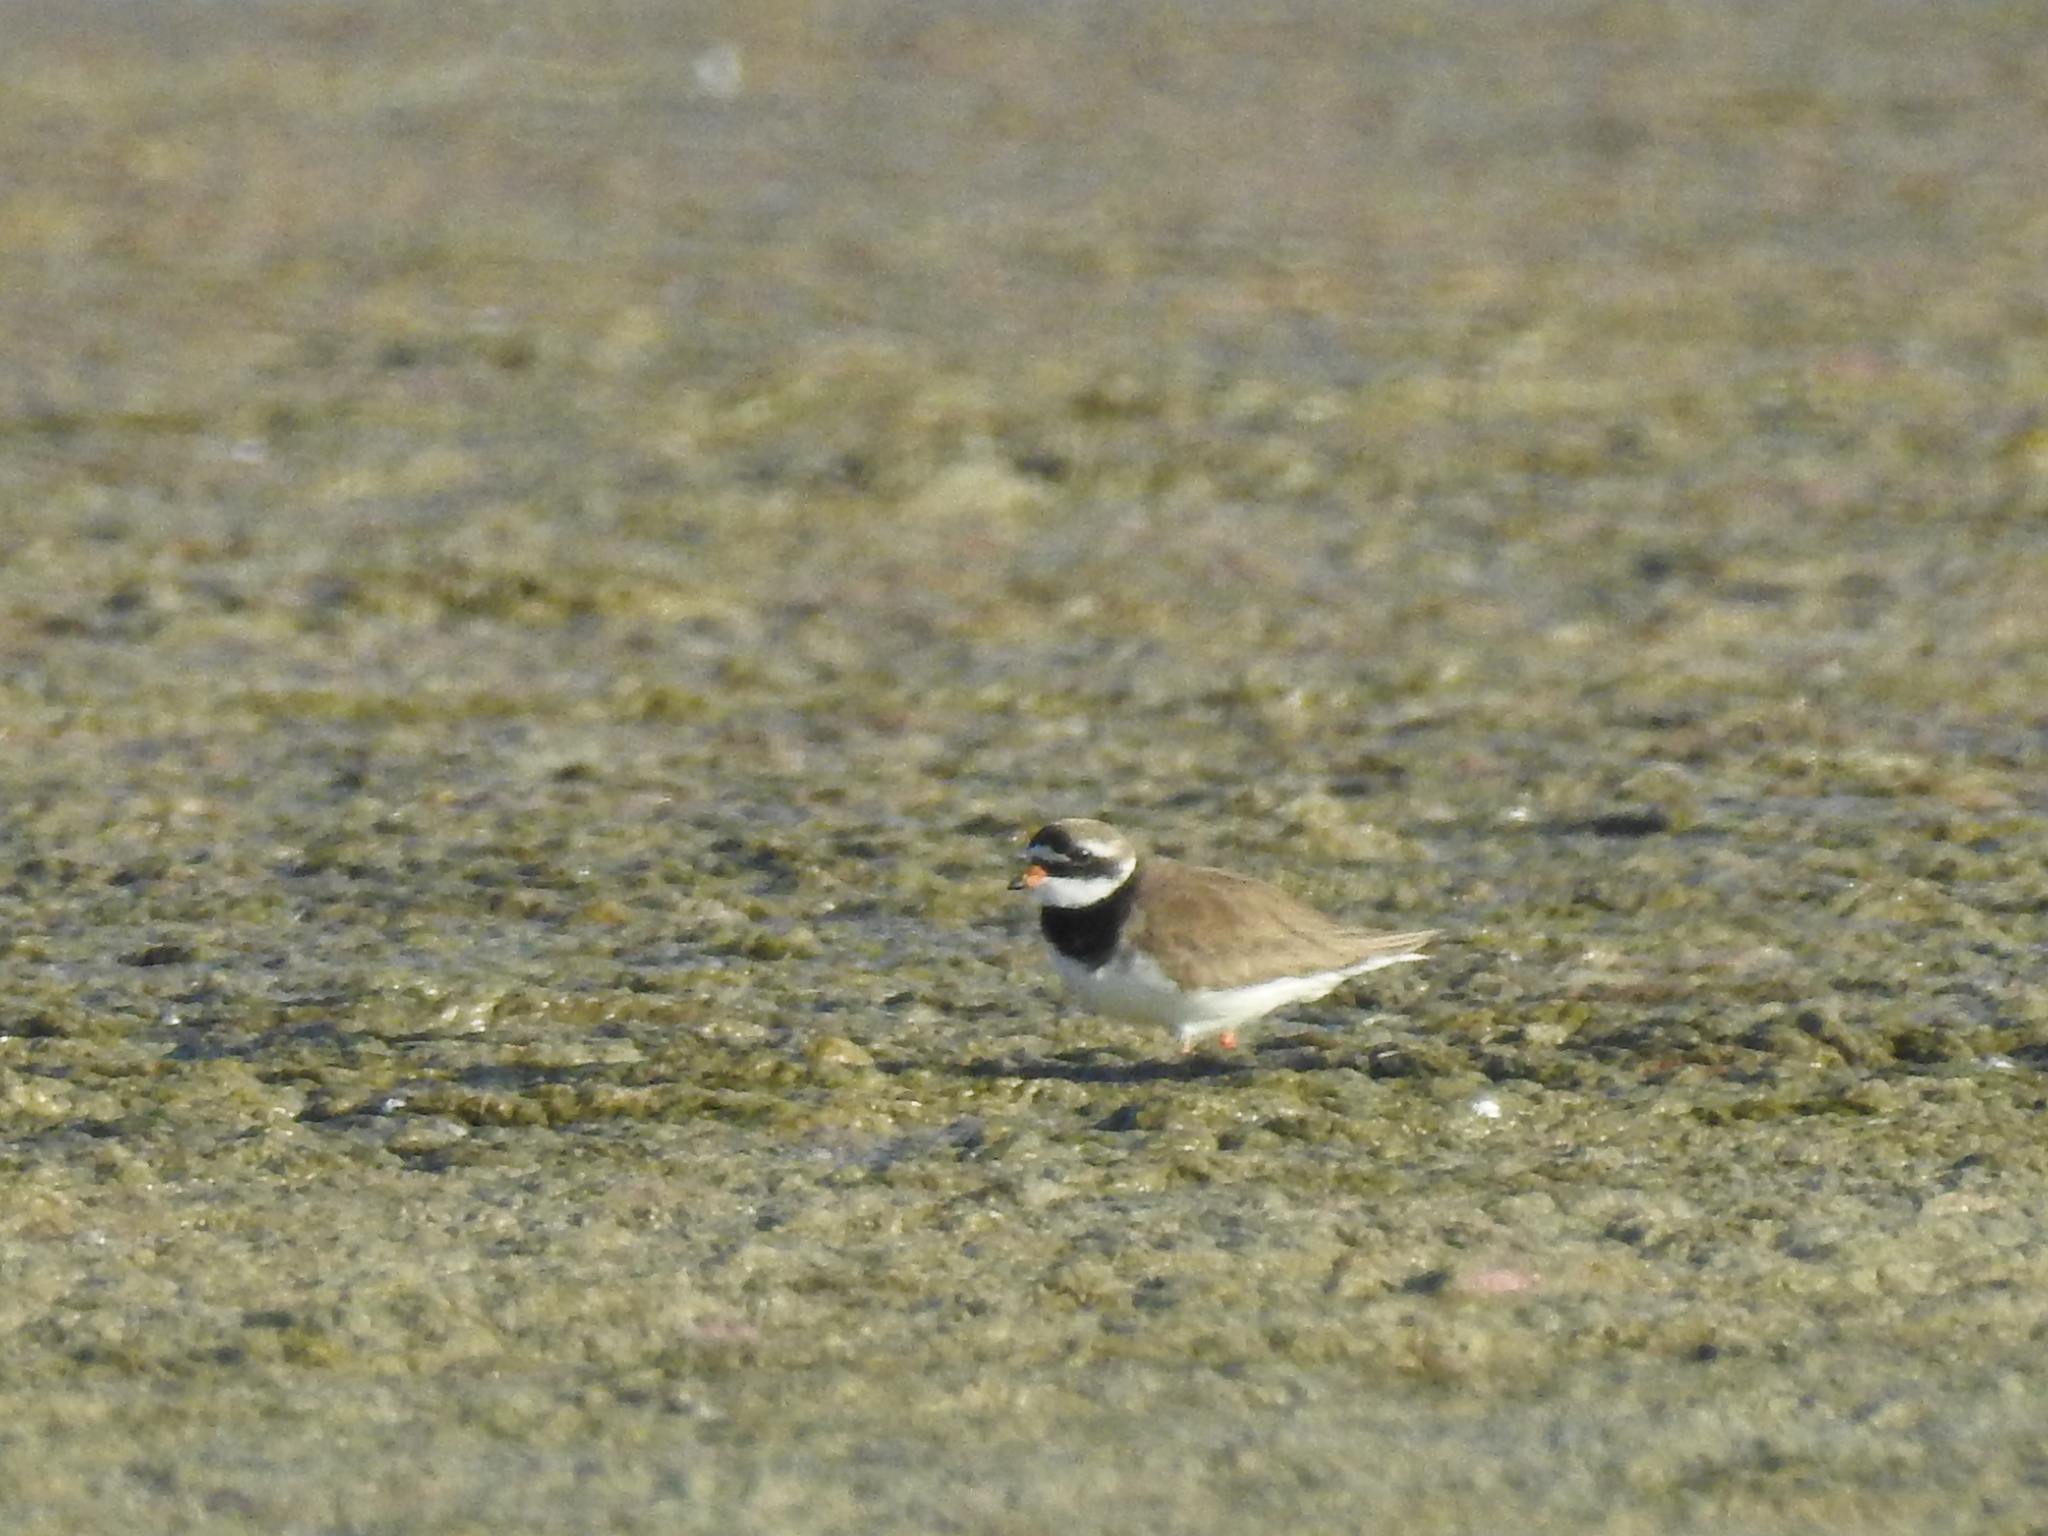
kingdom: Animalia
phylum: Chordata
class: Aves
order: Charadriiformes
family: Charadriidae
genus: Charadrius
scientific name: Charadrius hiaticula
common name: Common ringed plover
